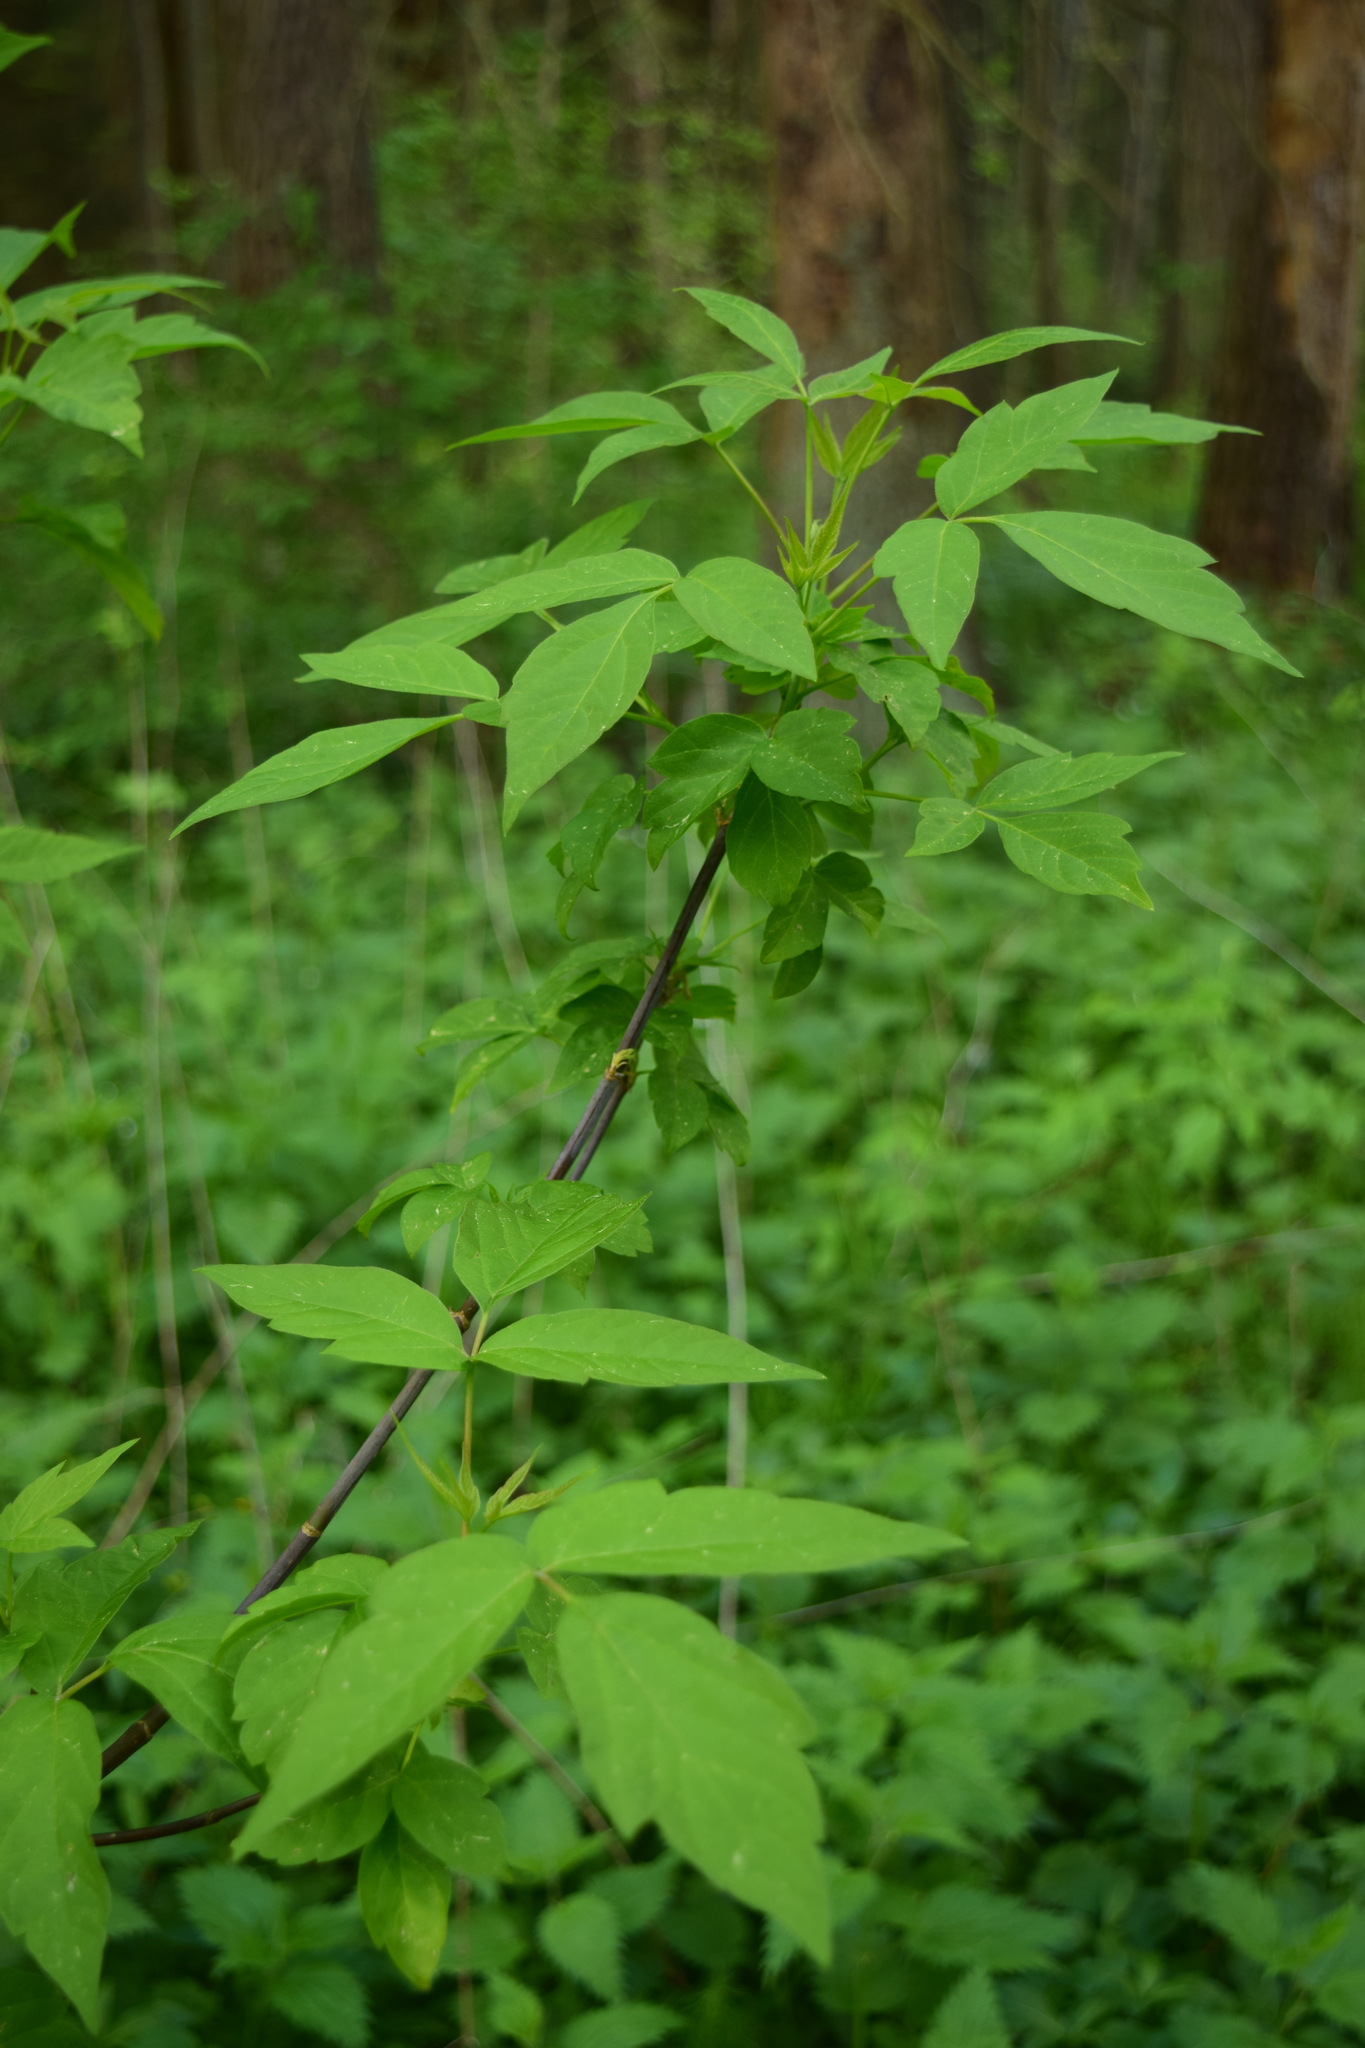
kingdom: Plantae
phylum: Tracheophyta
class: Magnoliopsida
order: Sapindales
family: Sapindaceae
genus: Acer
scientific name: Acer negundo
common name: Ashleaf maple
